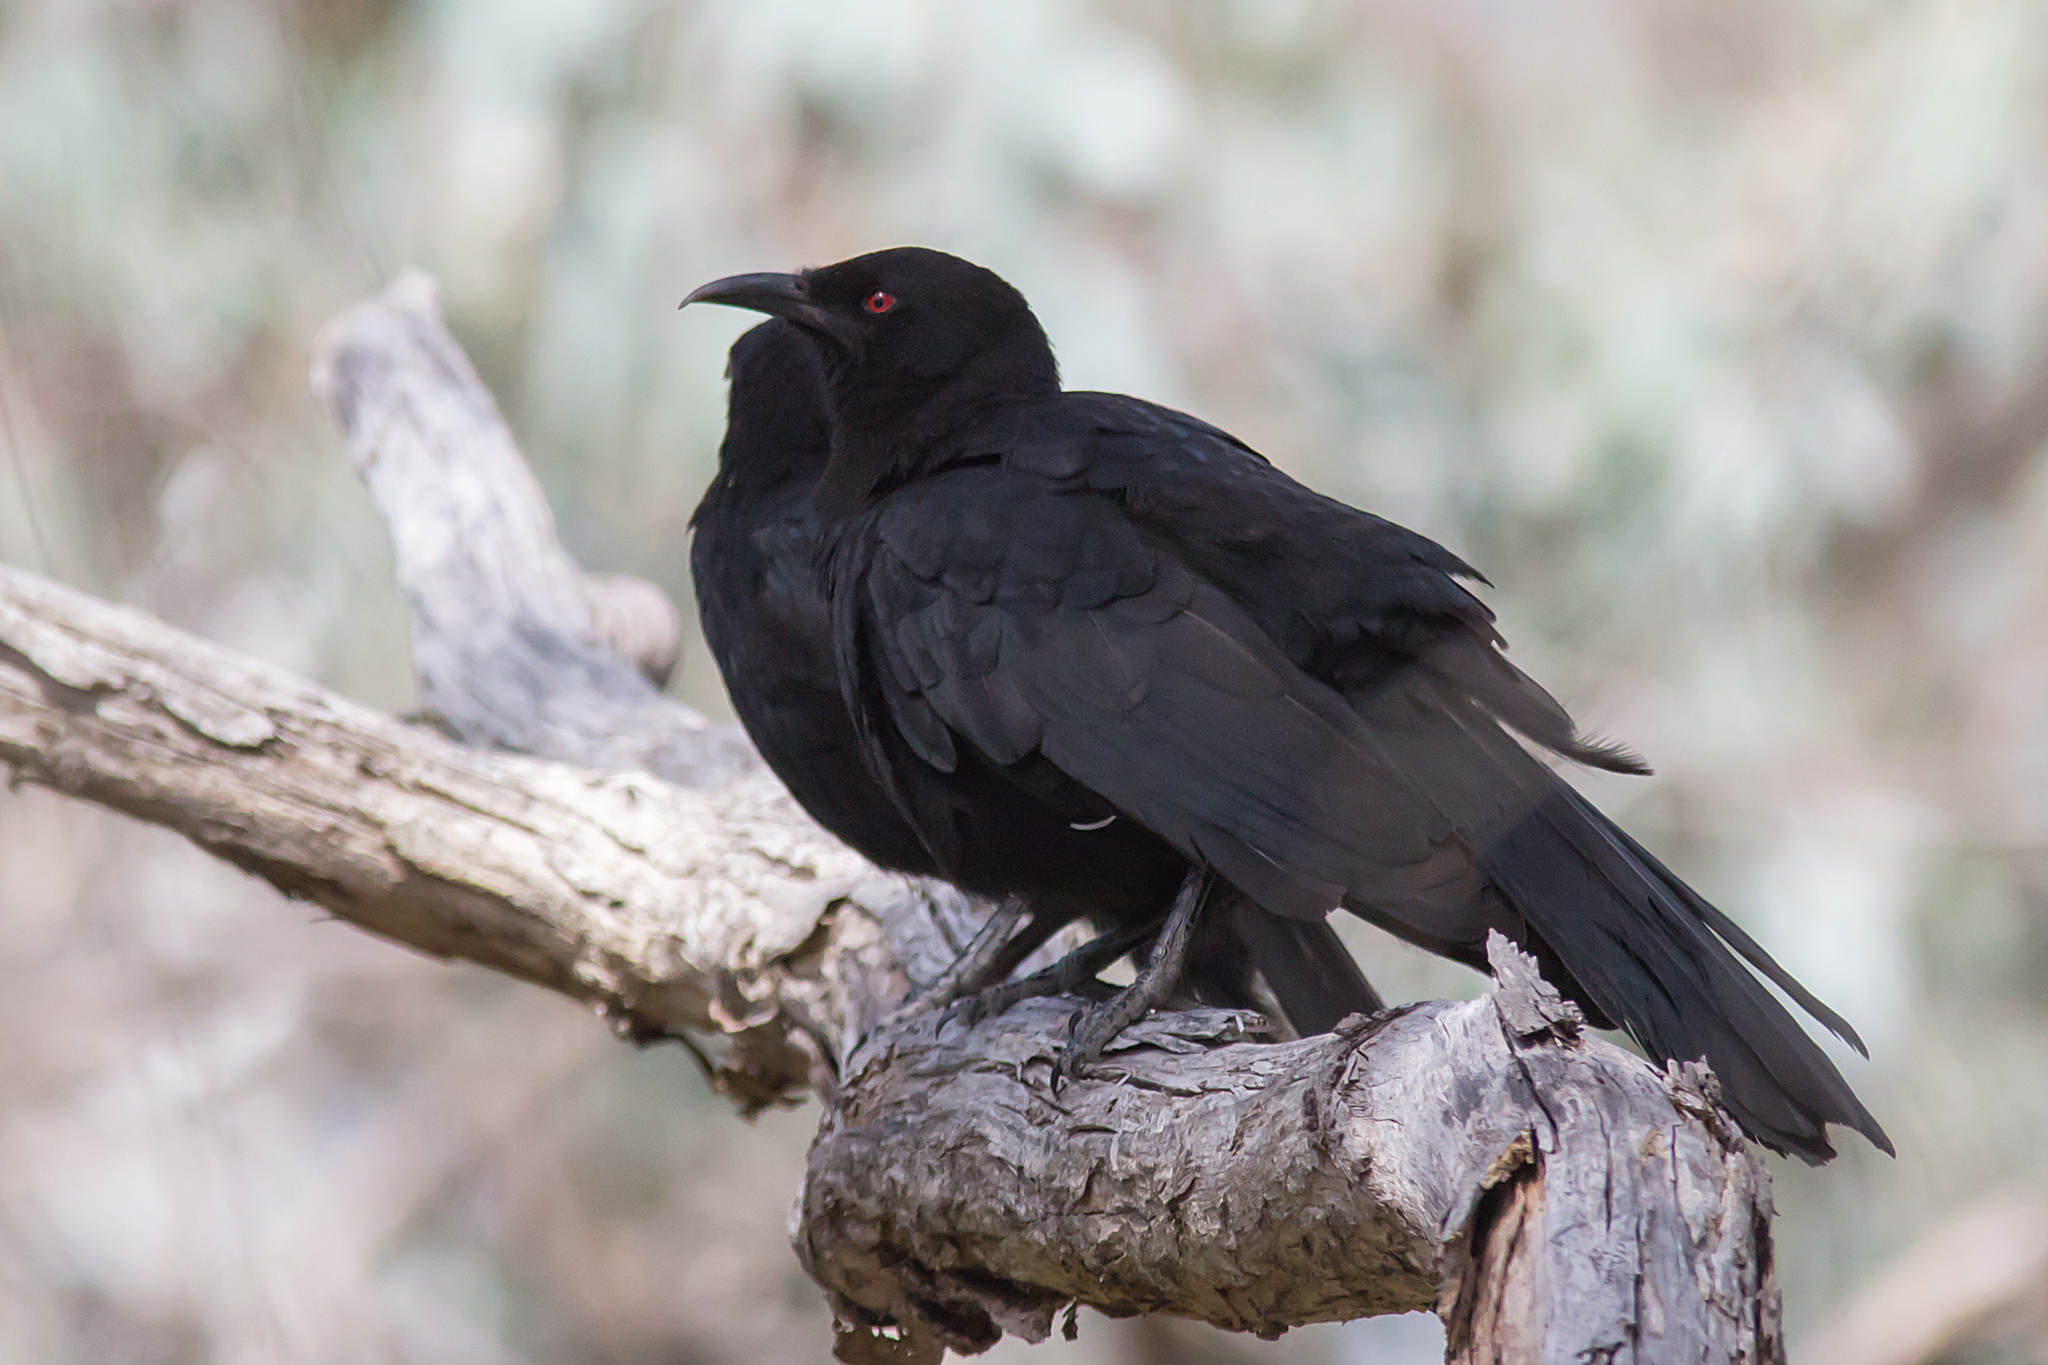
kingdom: Animalia
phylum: Chordata
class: Aves
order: Passeriformes
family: Corcoracidae
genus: Corcorax
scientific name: Corcorax melanoramphos
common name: White-winged chough
